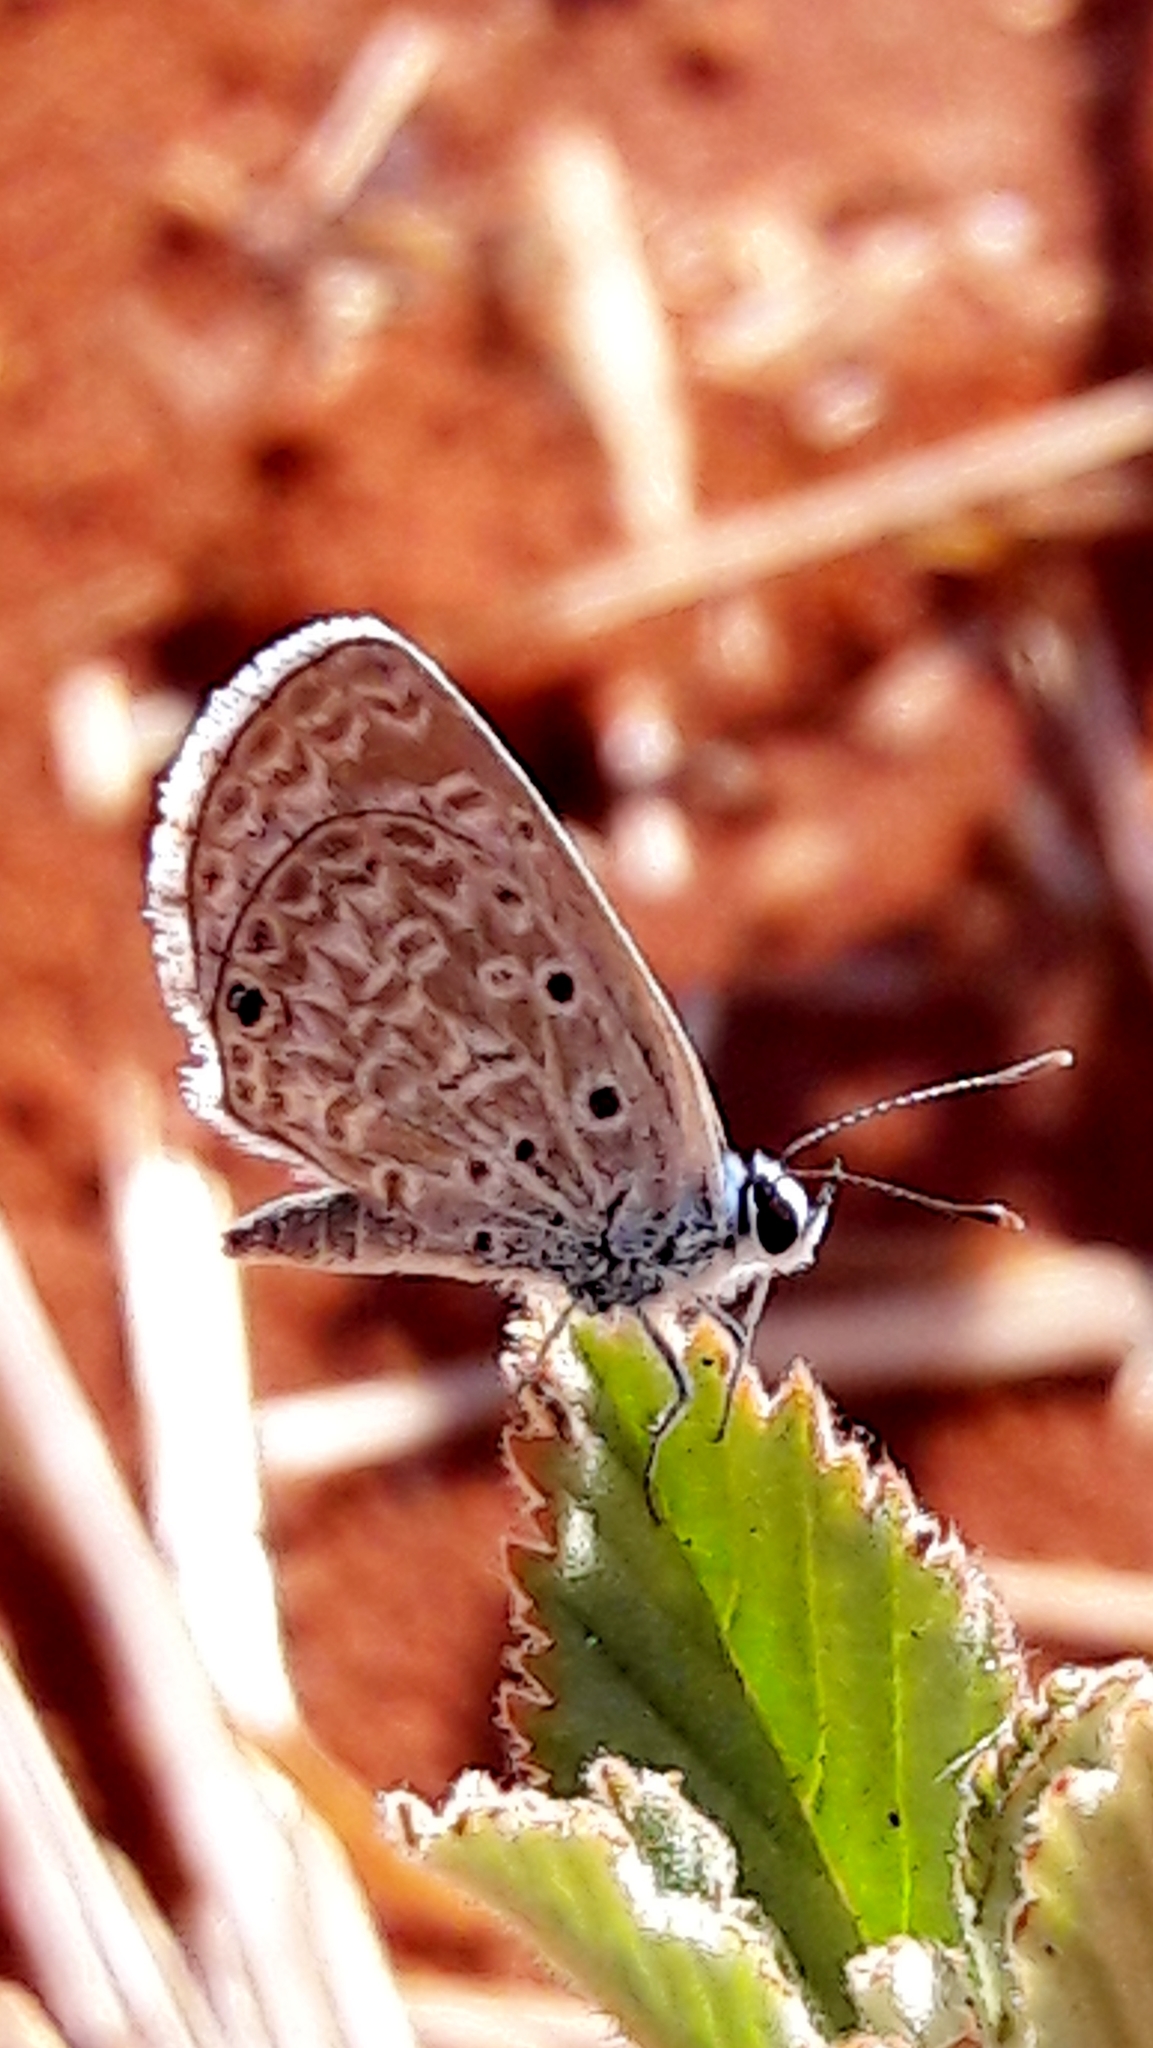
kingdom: Animalia
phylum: Arthropoda
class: Insecta
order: Lepidoptera
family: Lycaenidae
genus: Hemiargus
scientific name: Hemiargus hanno
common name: Common blue
